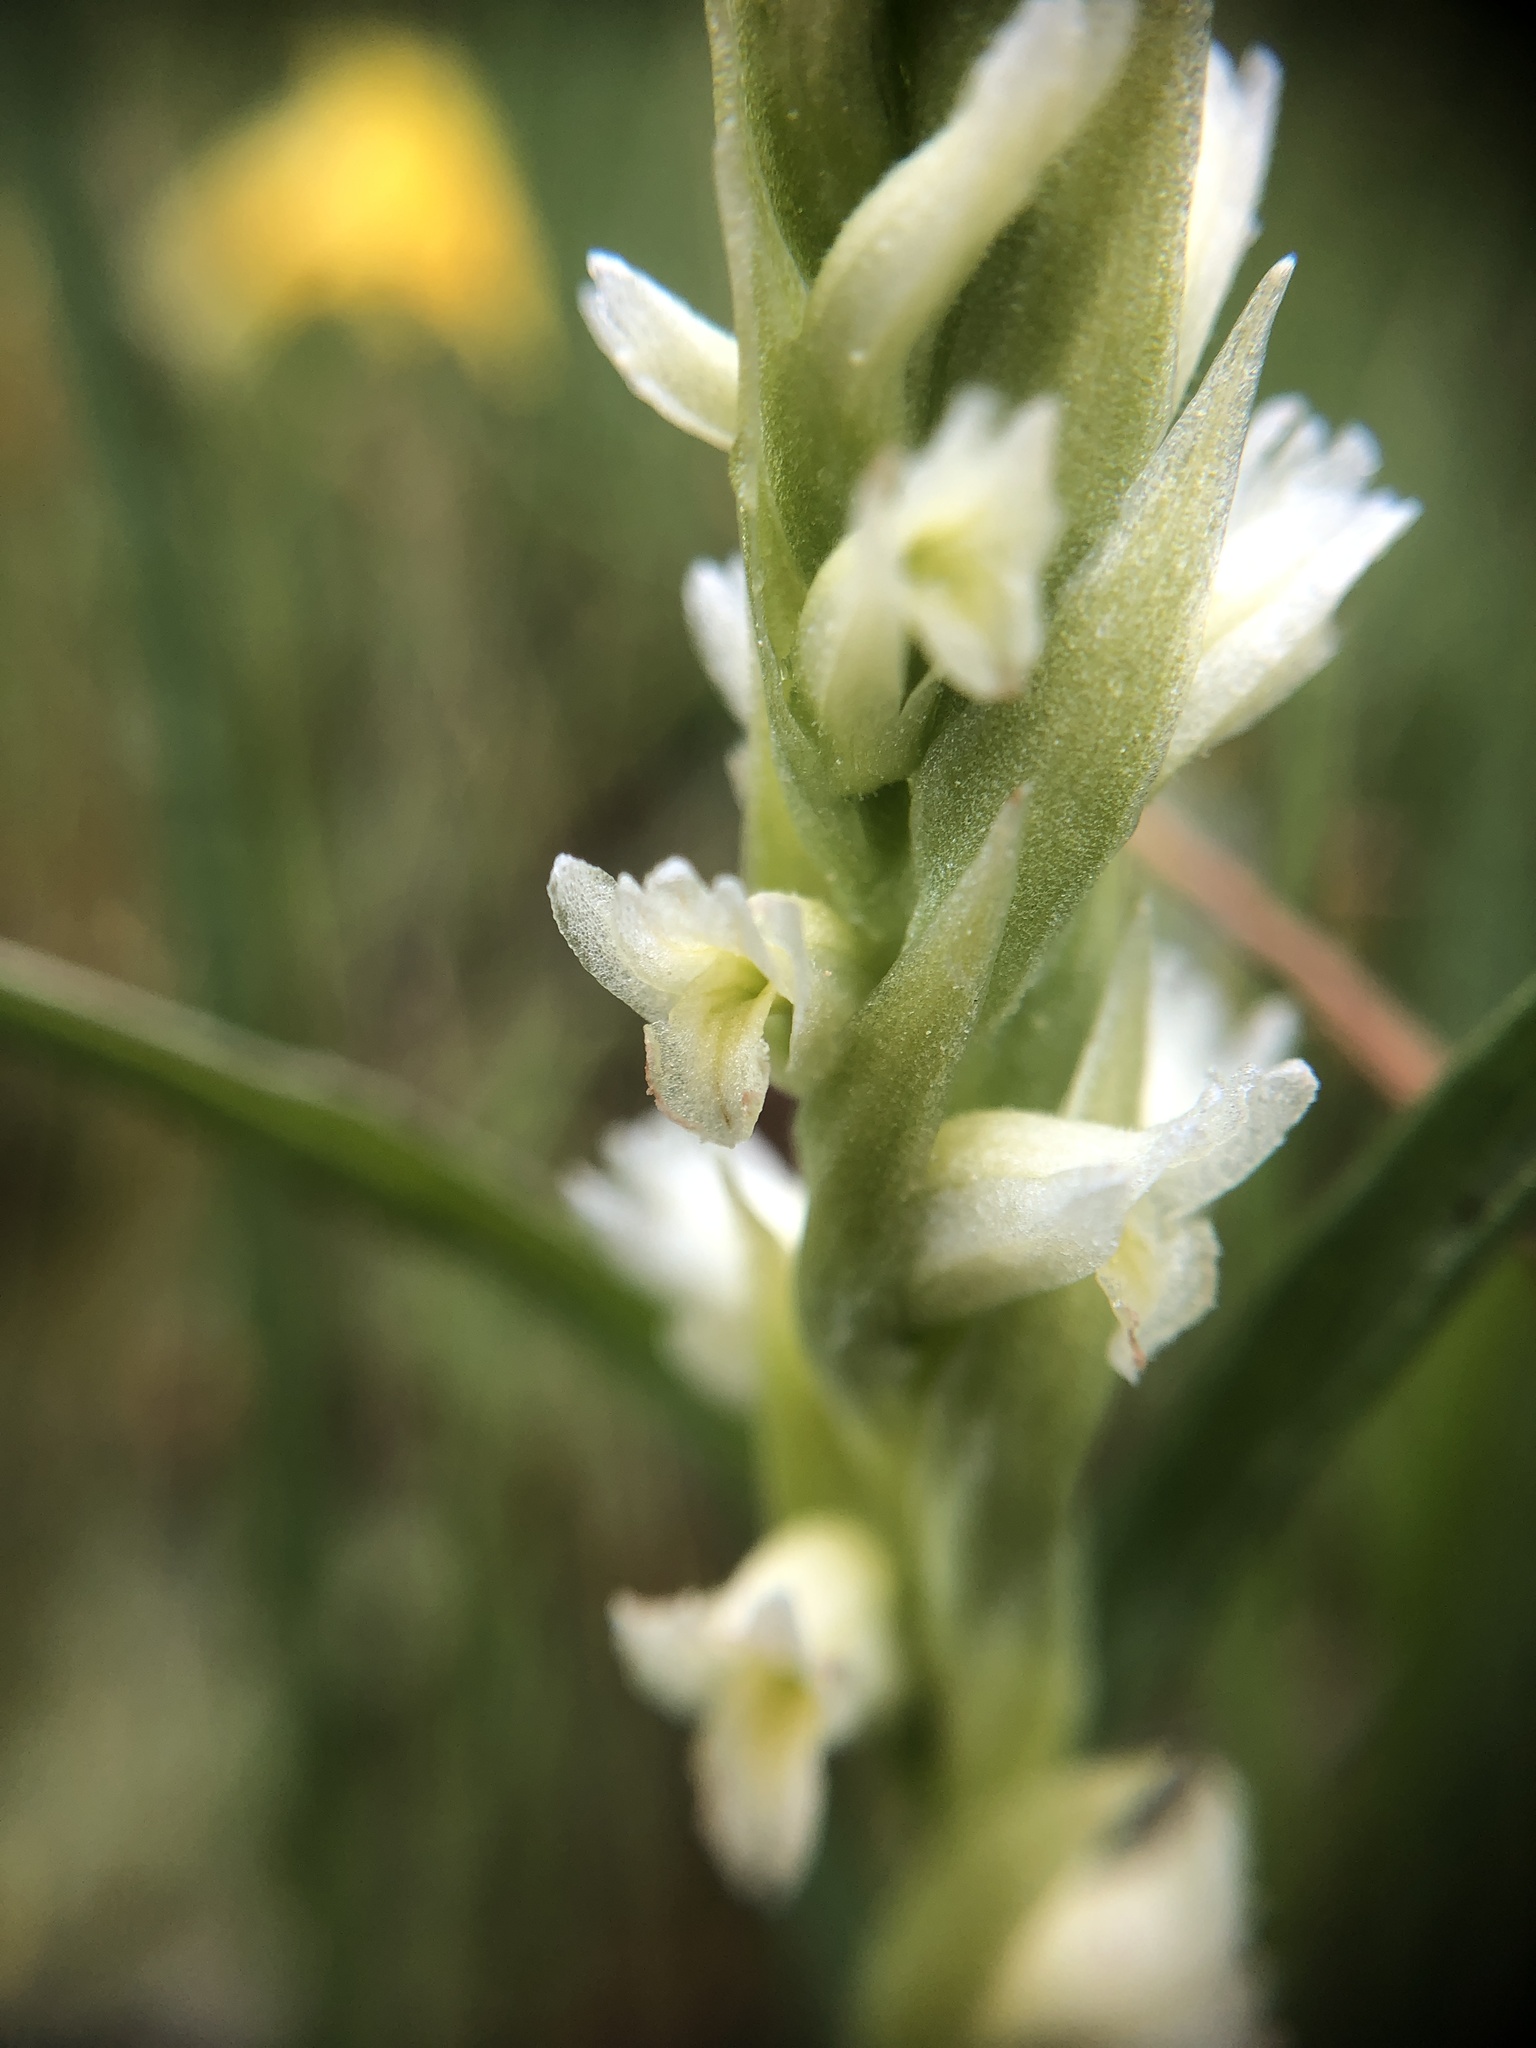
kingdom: Plantae
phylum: Tracheophyta
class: Liliopsida
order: Asparagales
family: Orchidaceae
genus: Spiranthes
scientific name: Spiranthes romanzoffiana
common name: Irish lady's-tresses
